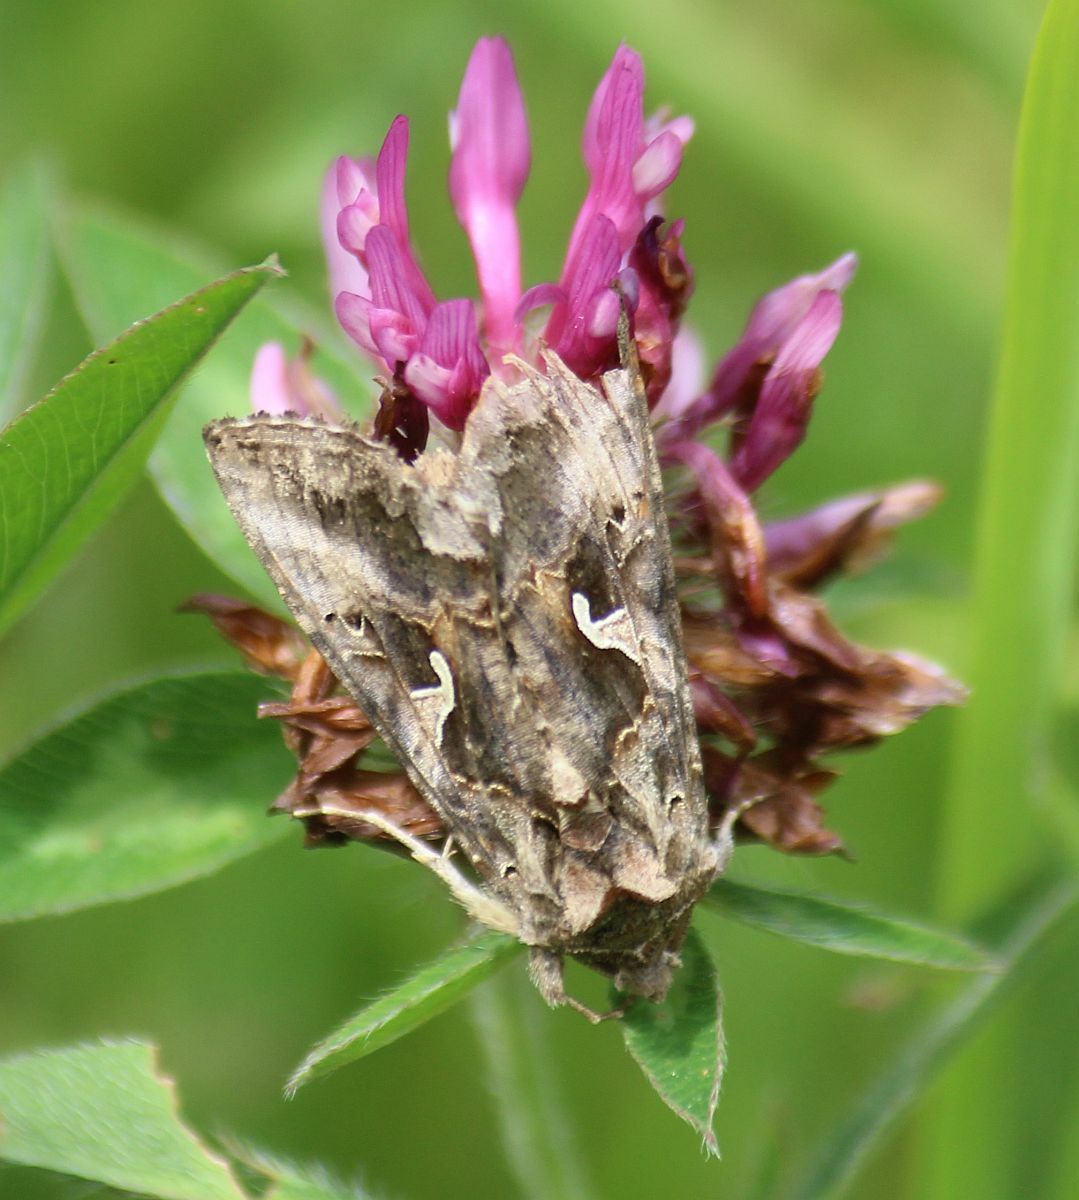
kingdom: Animalia
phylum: Arthropoda
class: Insecta
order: Lepidoptera
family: Noctuidae
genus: Autographa
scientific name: Autographa gamma
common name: Silver y
